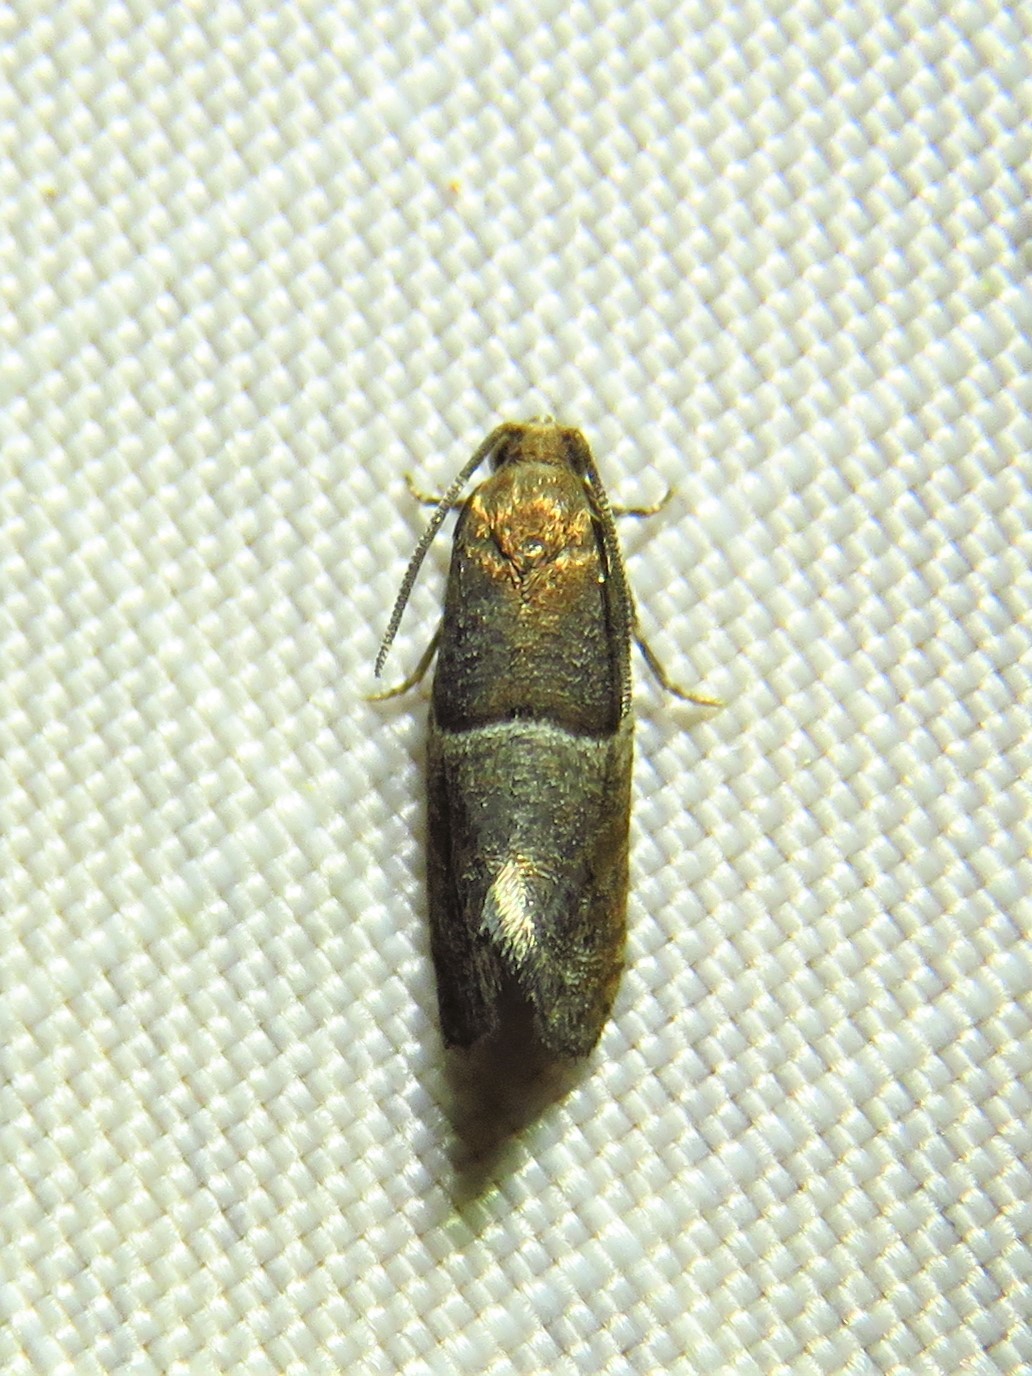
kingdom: Animalia
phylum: Arthropoda
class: Insecta
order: Lepidoptera
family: Tortricidae
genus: Larisa
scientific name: Larisa subsolana
